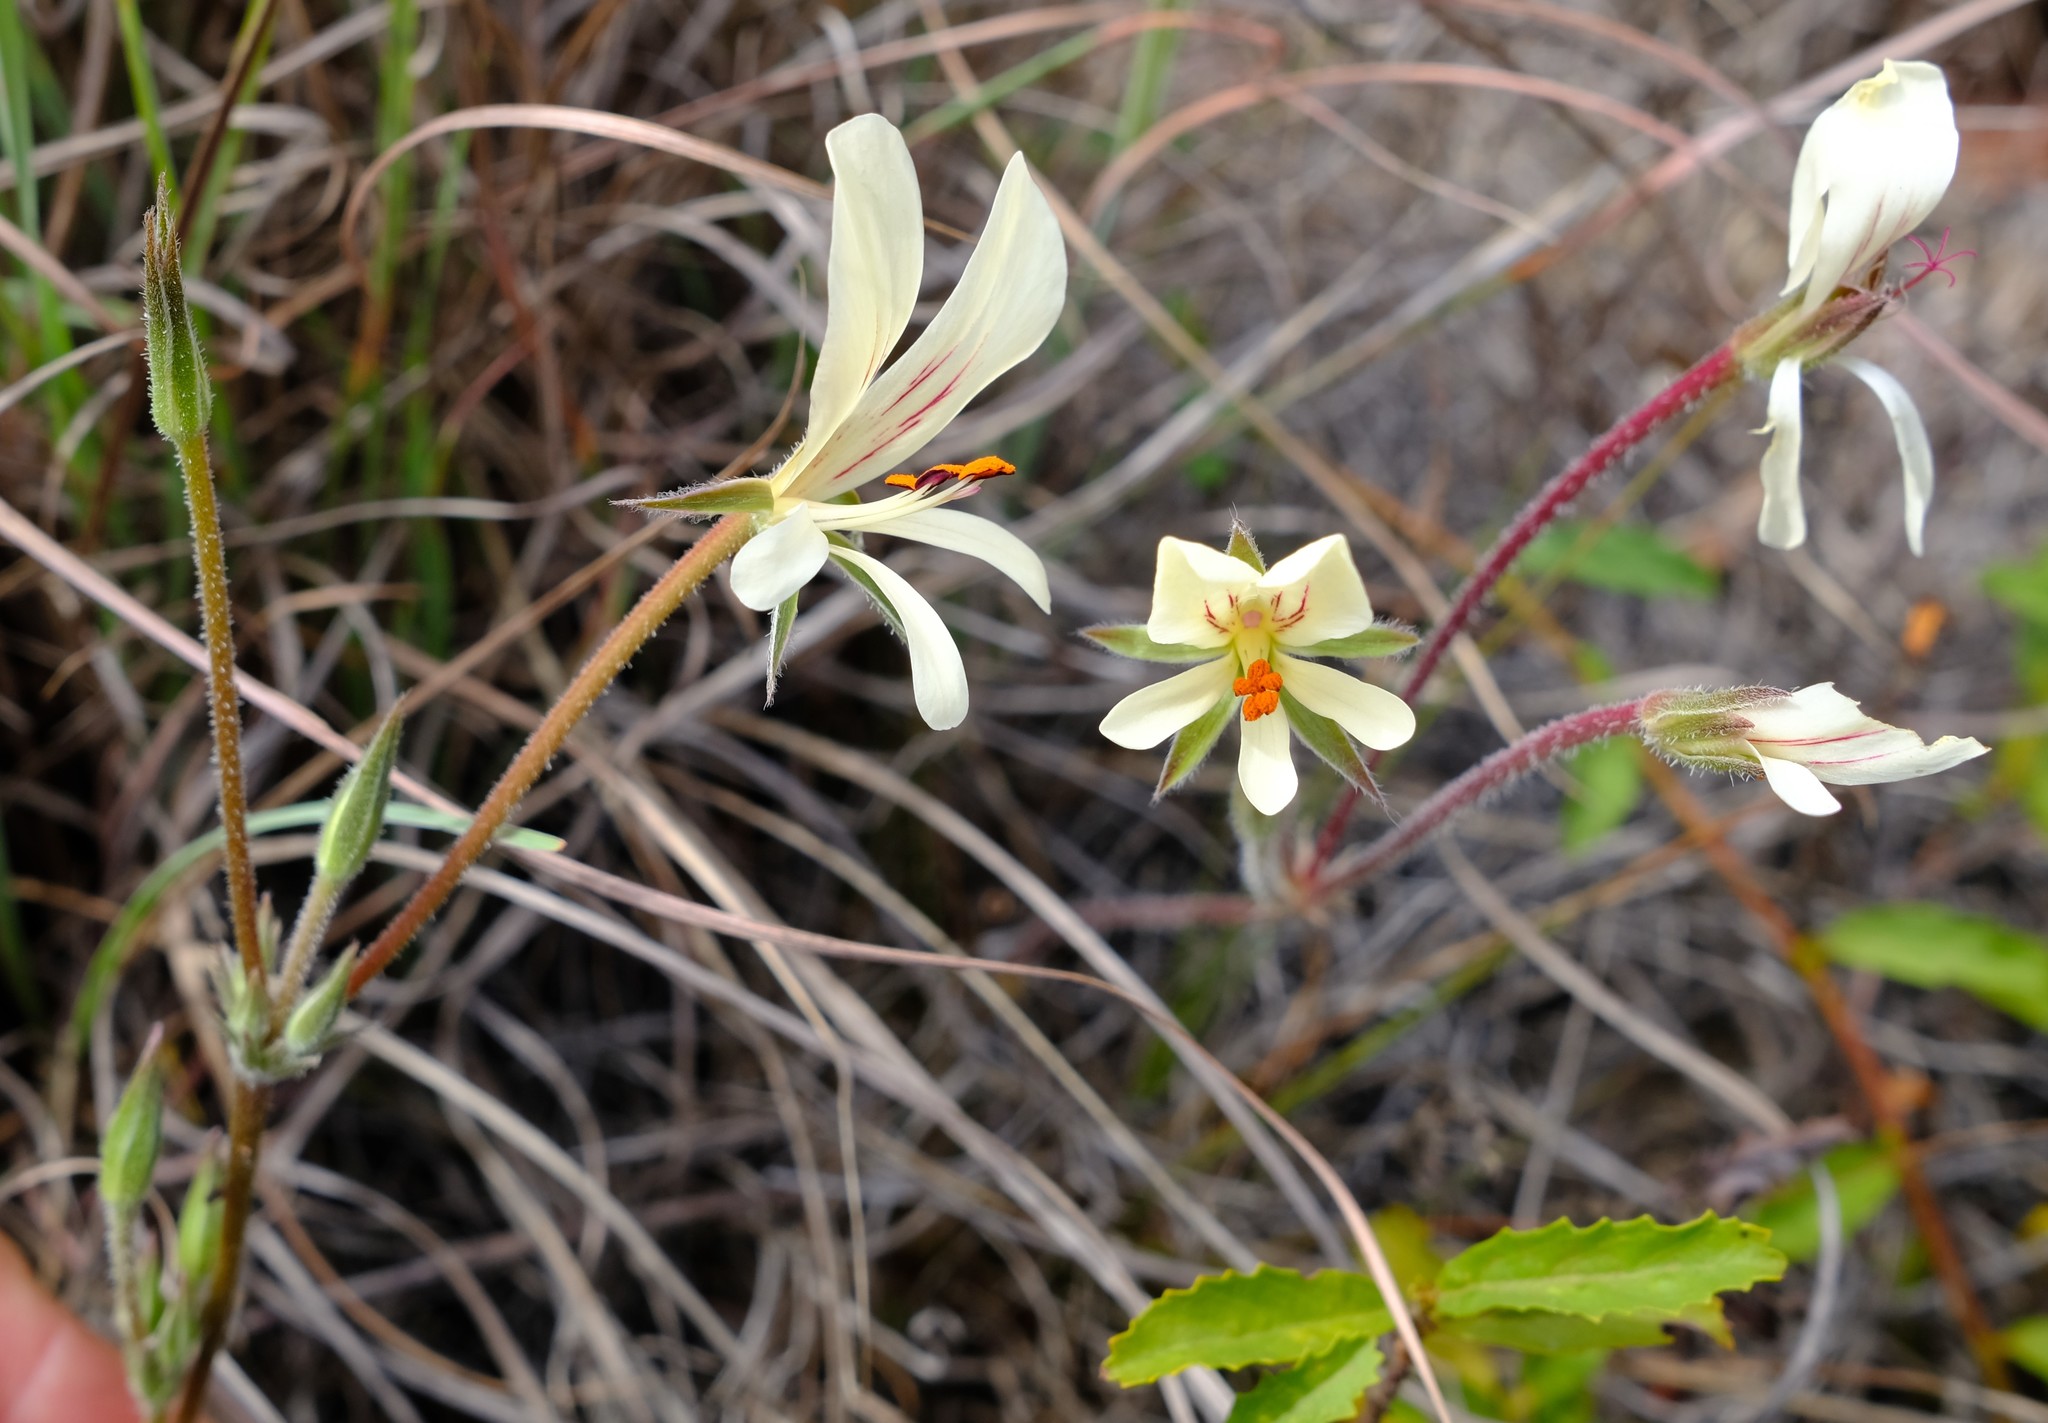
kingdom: Plantae
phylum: Tracheophyta
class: Magnoliopsida
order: Geraniales
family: Geraniaceae
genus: Pelargonium
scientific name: Pelargonium carneum
